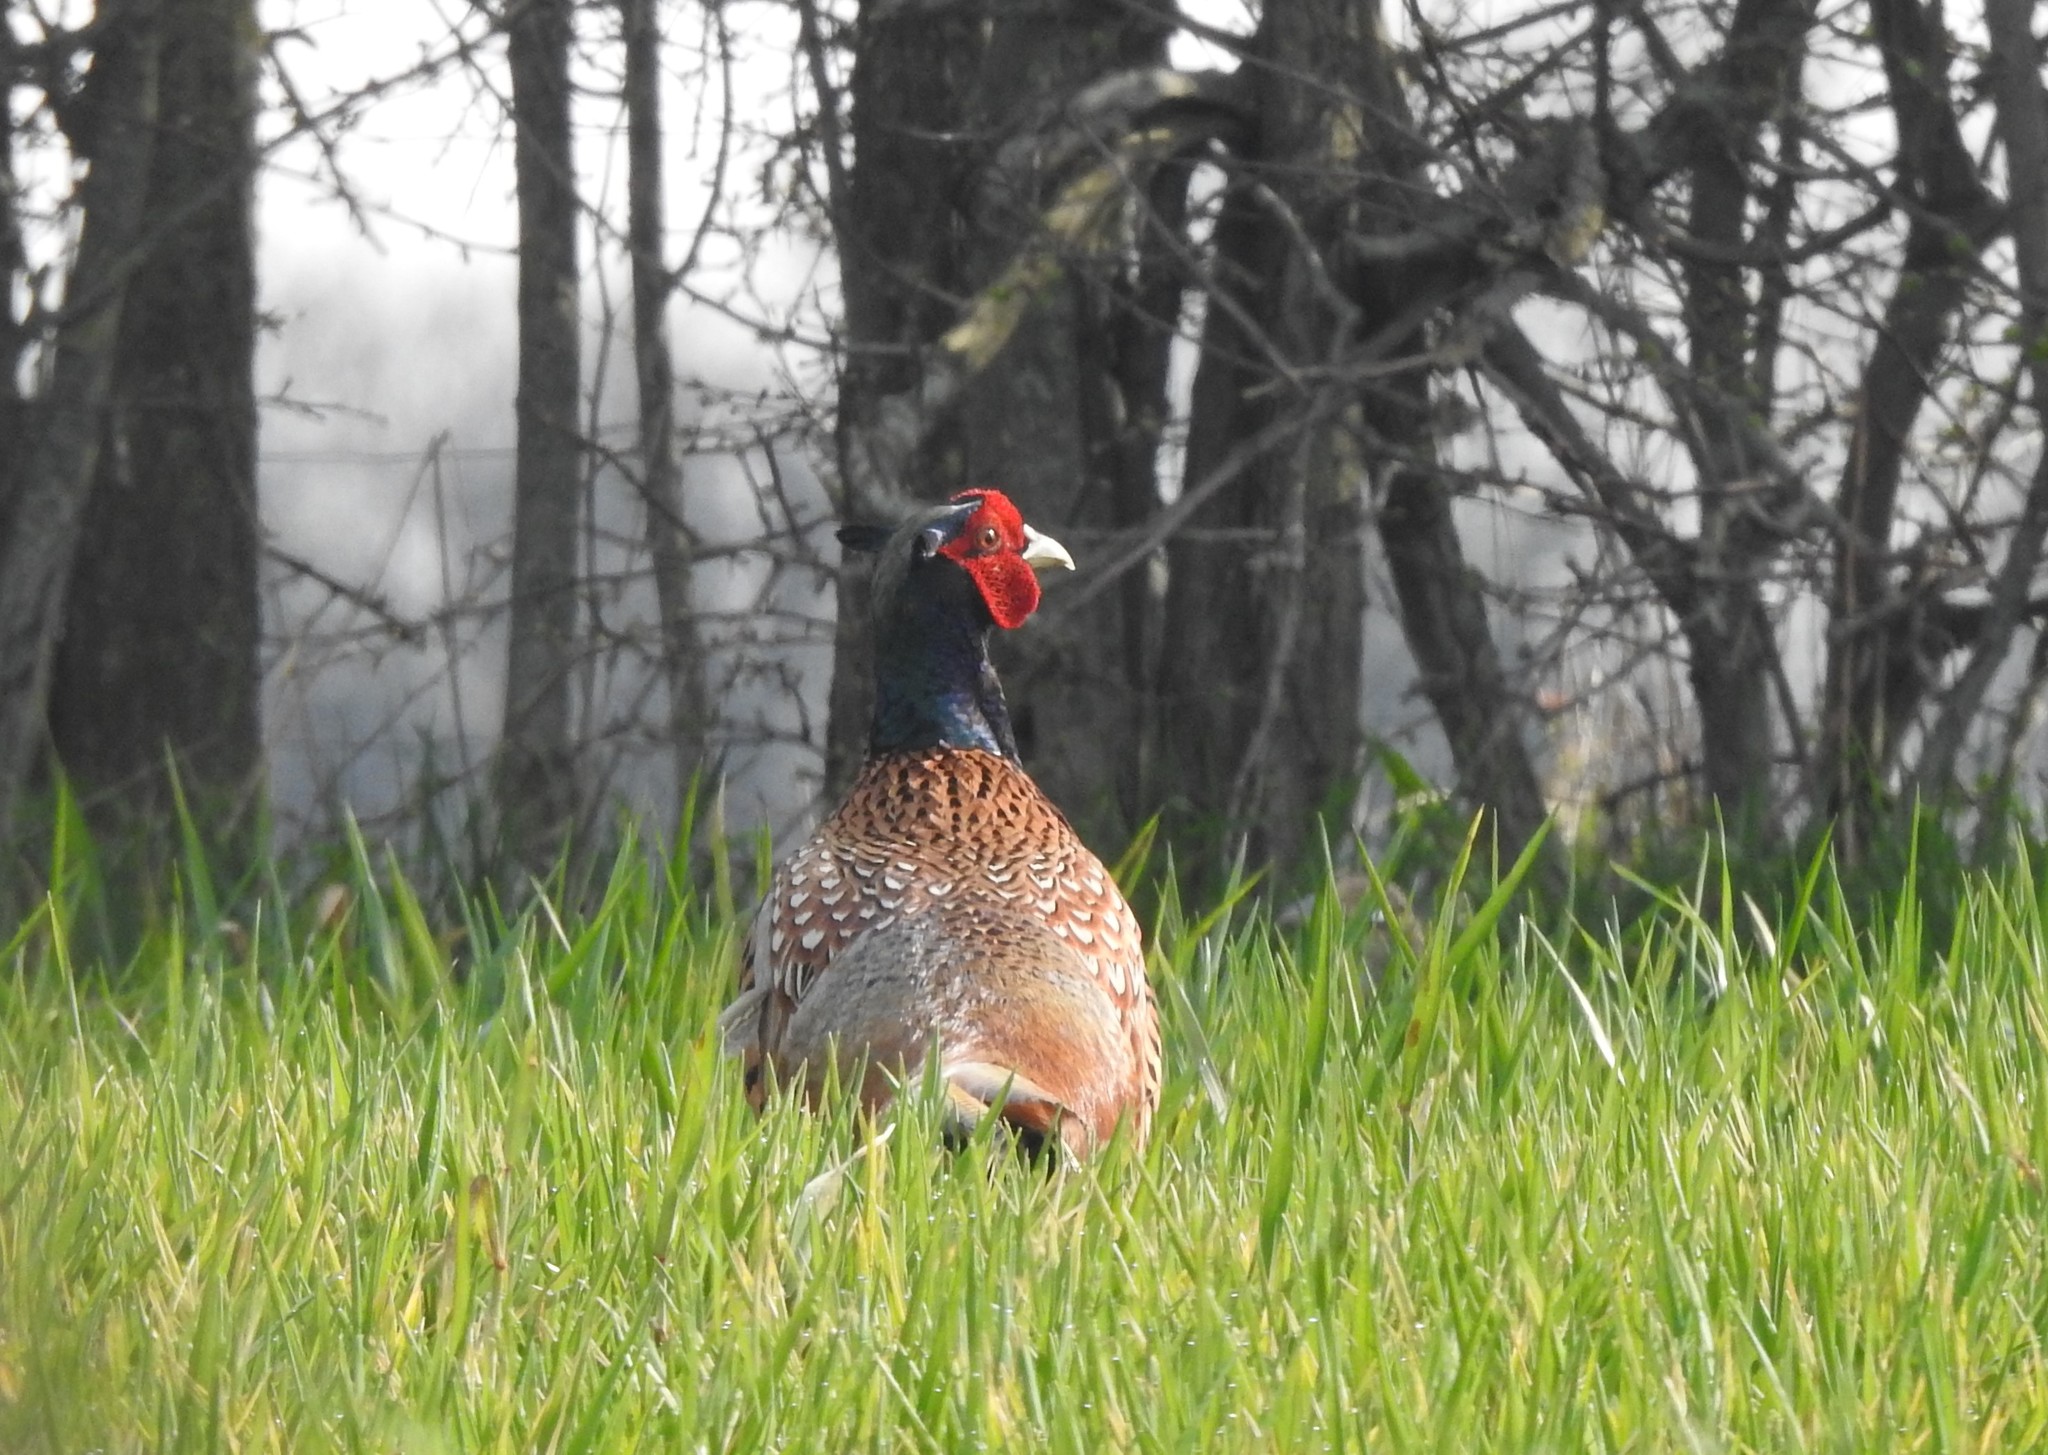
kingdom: Animalia
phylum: Chordata
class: Aves
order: Galliformes
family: Phasianidae
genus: Phasianus
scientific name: Phasianus colchicus
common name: Common pheasant
